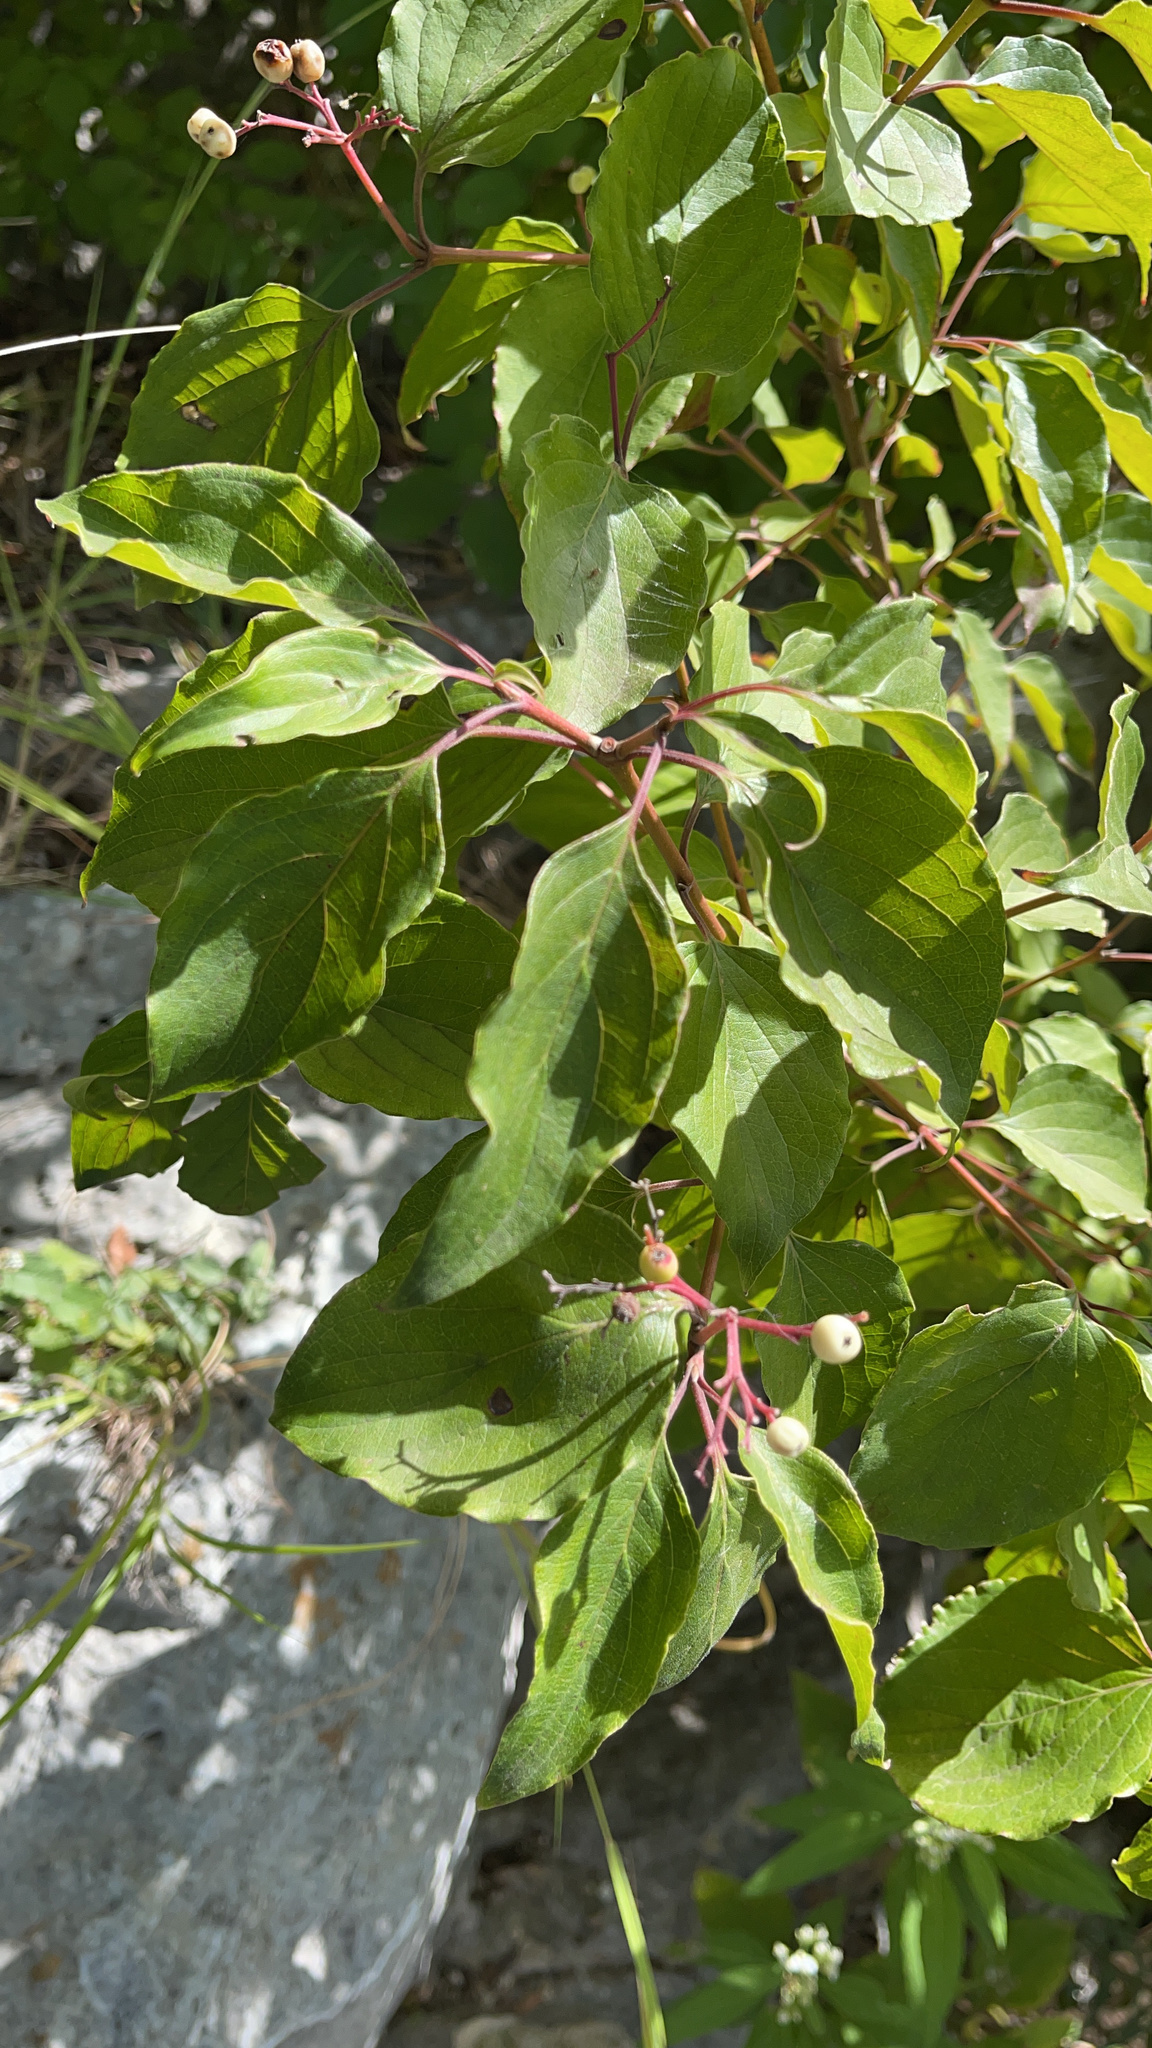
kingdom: Plantae
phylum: Tracheophyta
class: Magnoliopsida
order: Cornales
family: Cornaceae
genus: Cornus
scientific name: Cornus drummondii
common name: Rough-leaf dogwood
